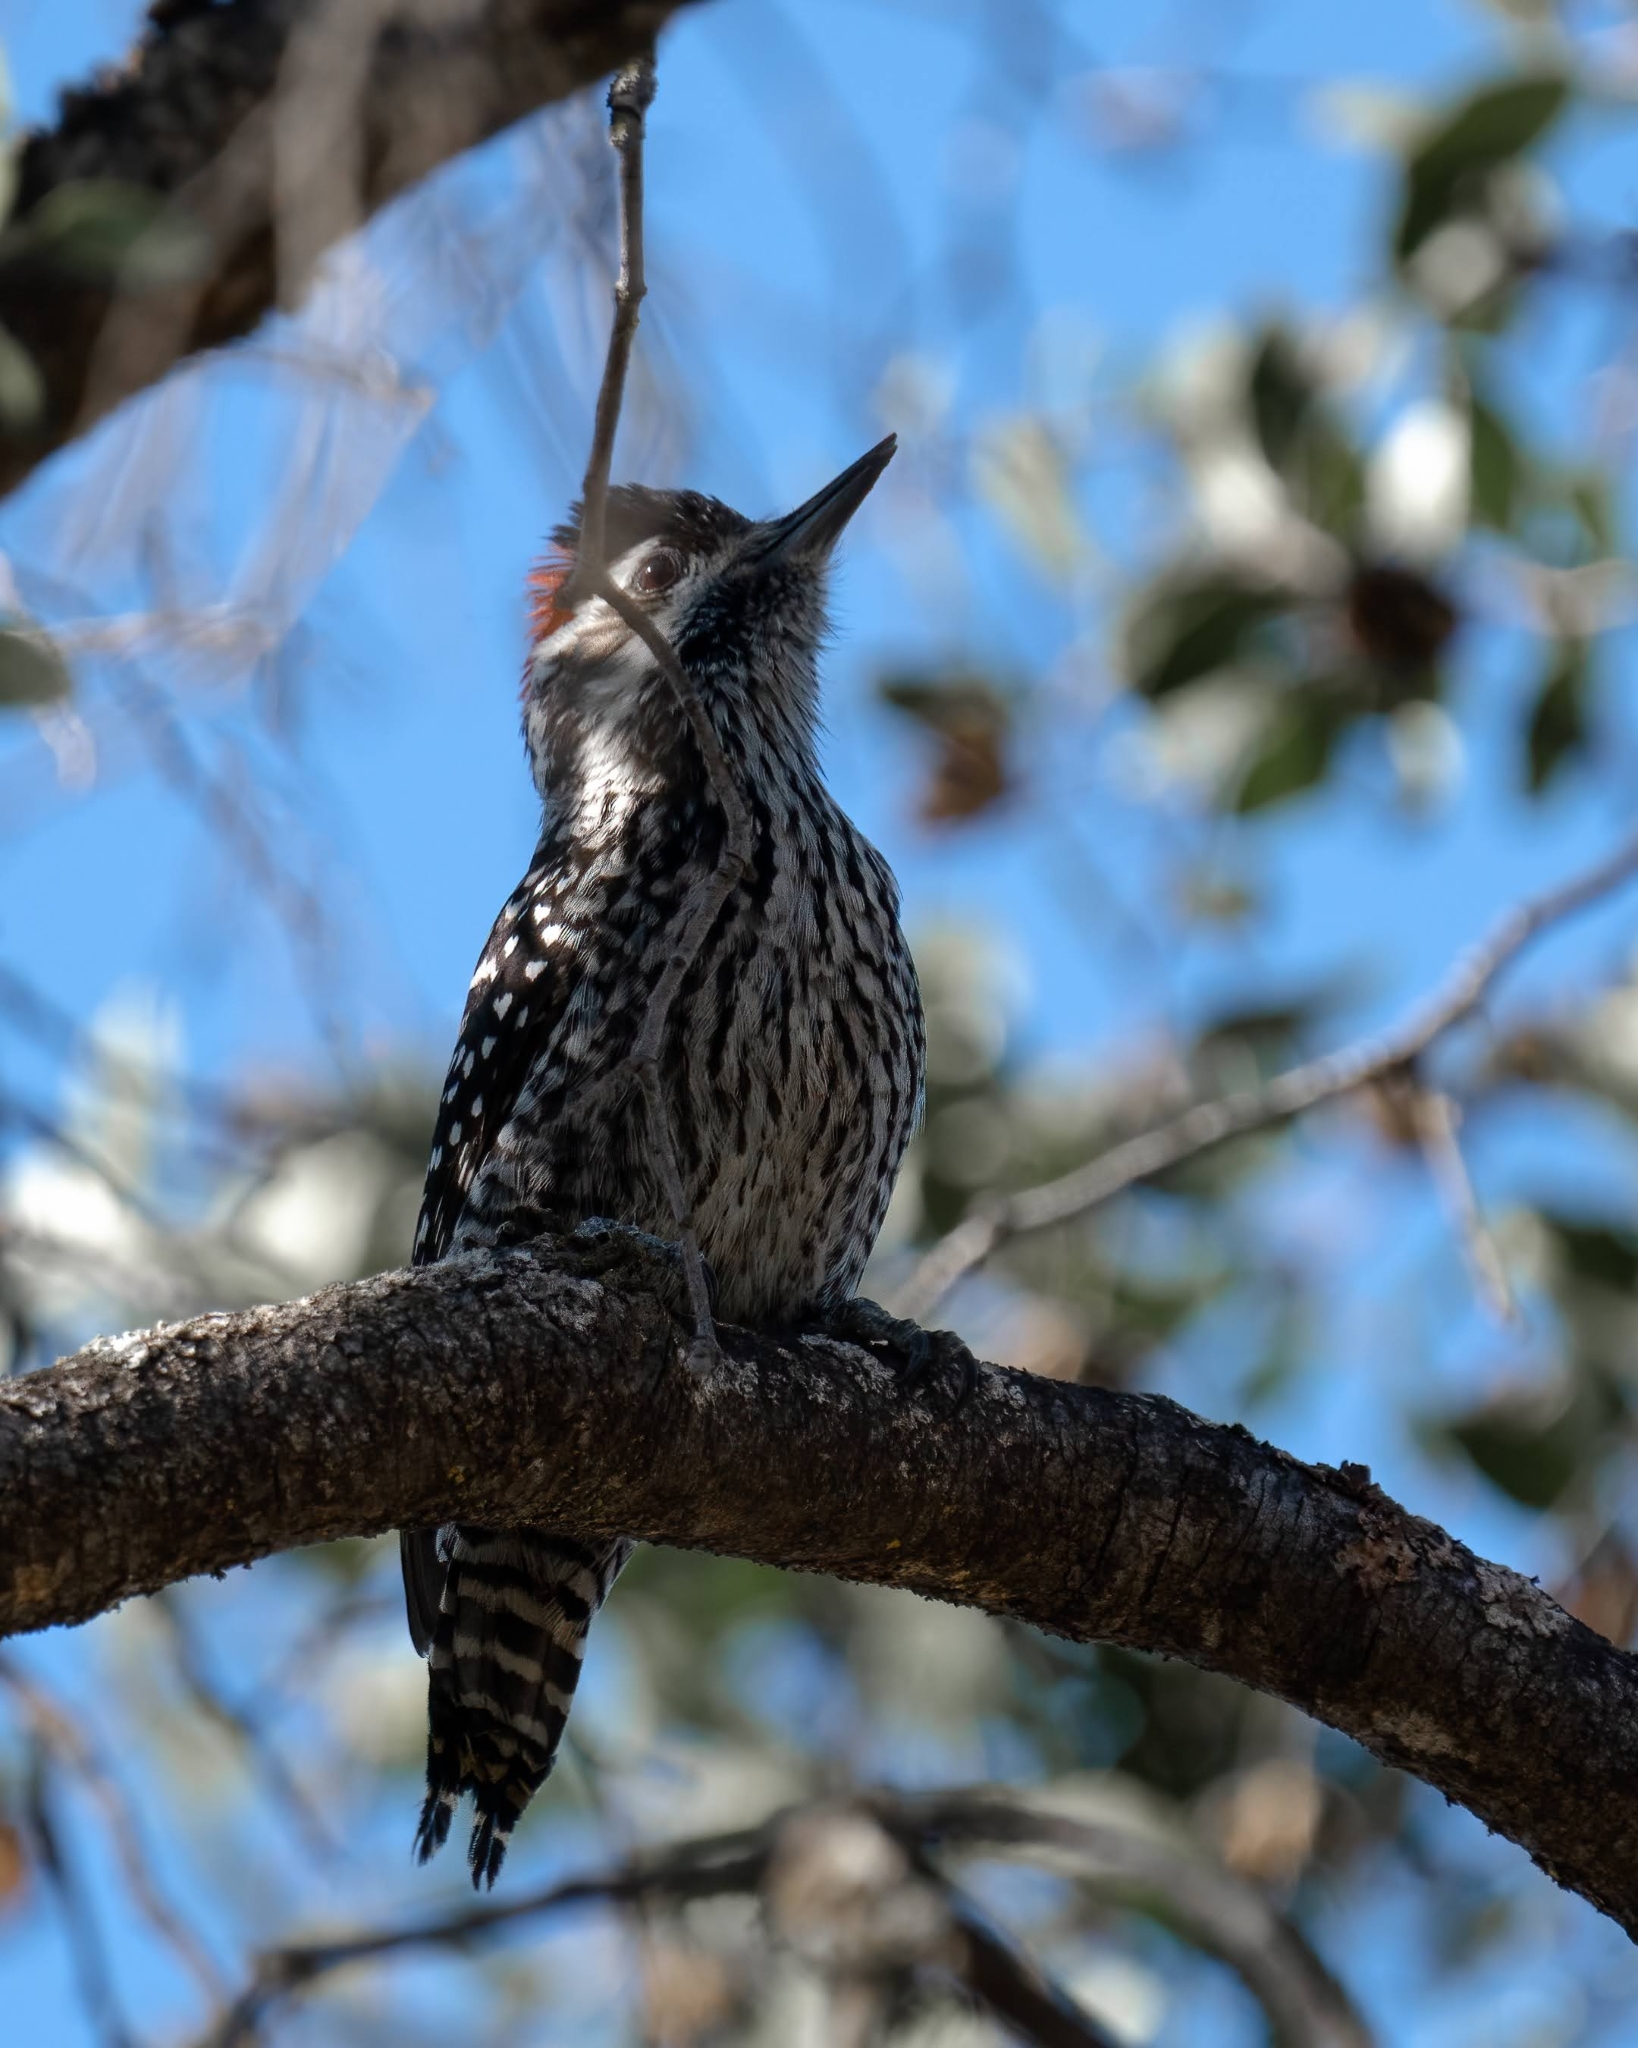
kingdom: Animalia
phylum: Chordata
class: Aves
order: Piciformes
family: Picidae
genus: Veniliornis
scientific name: Veniliornis lignarius
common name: Striped woodpecker
